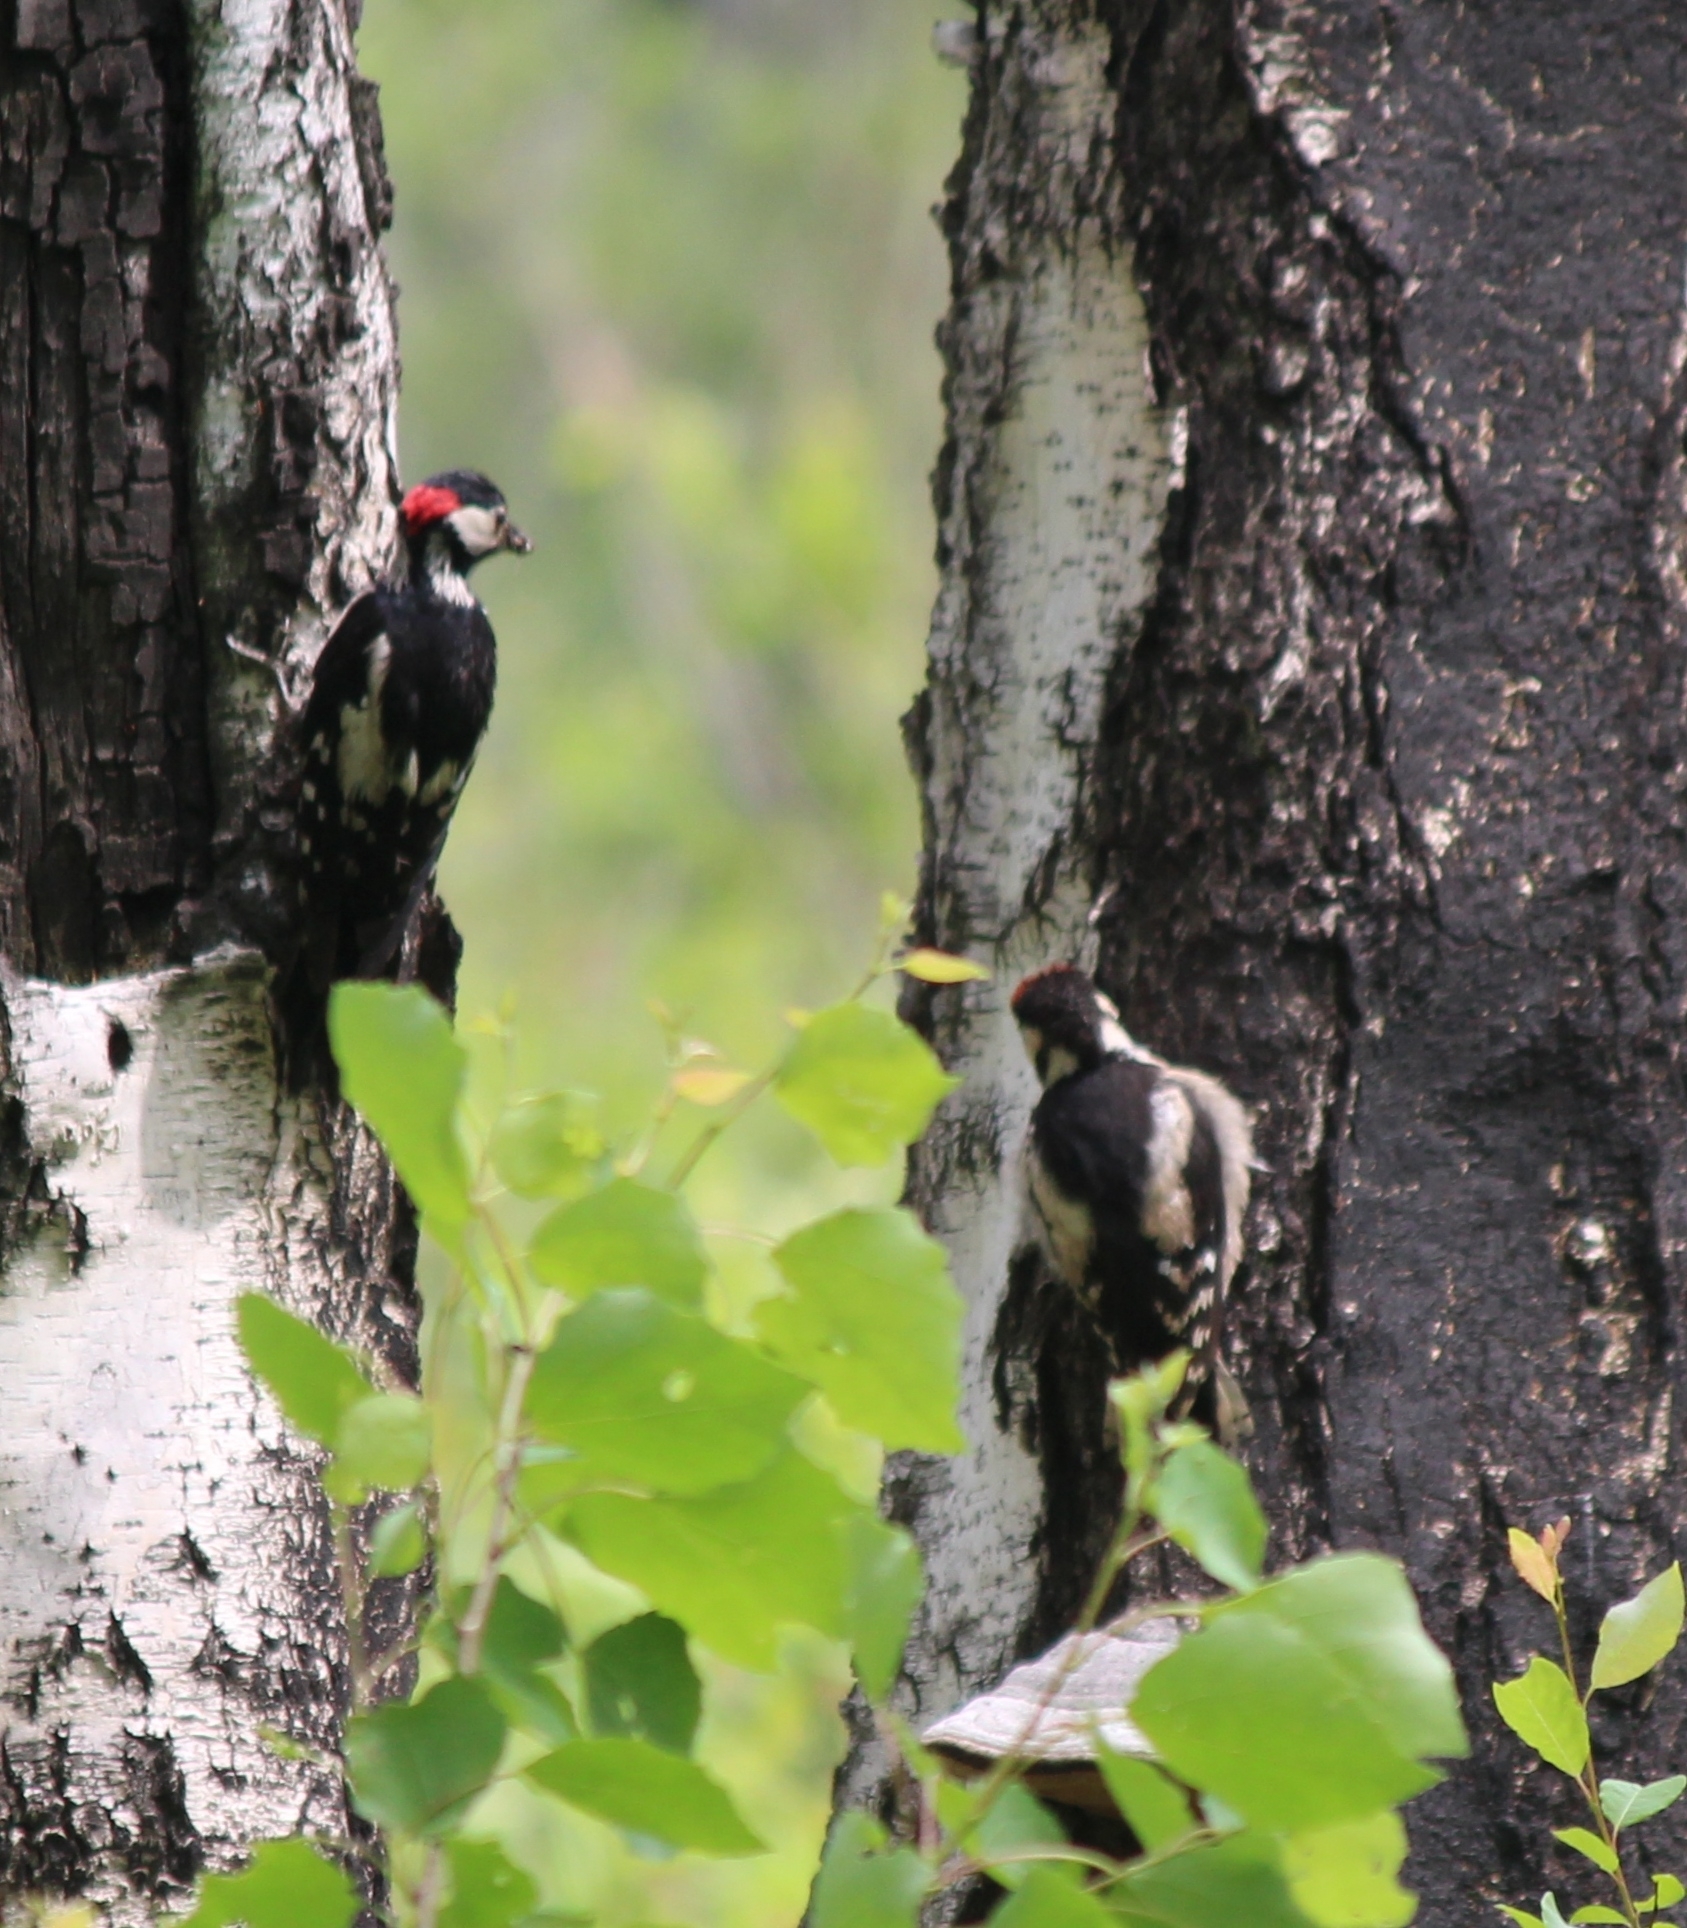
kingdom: Animalia
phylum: Chordata
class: Aves
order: Piciformes
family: Picidae
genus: Dendrocopos
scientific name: Dendrocopos major
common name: Great spotted woodpecker
